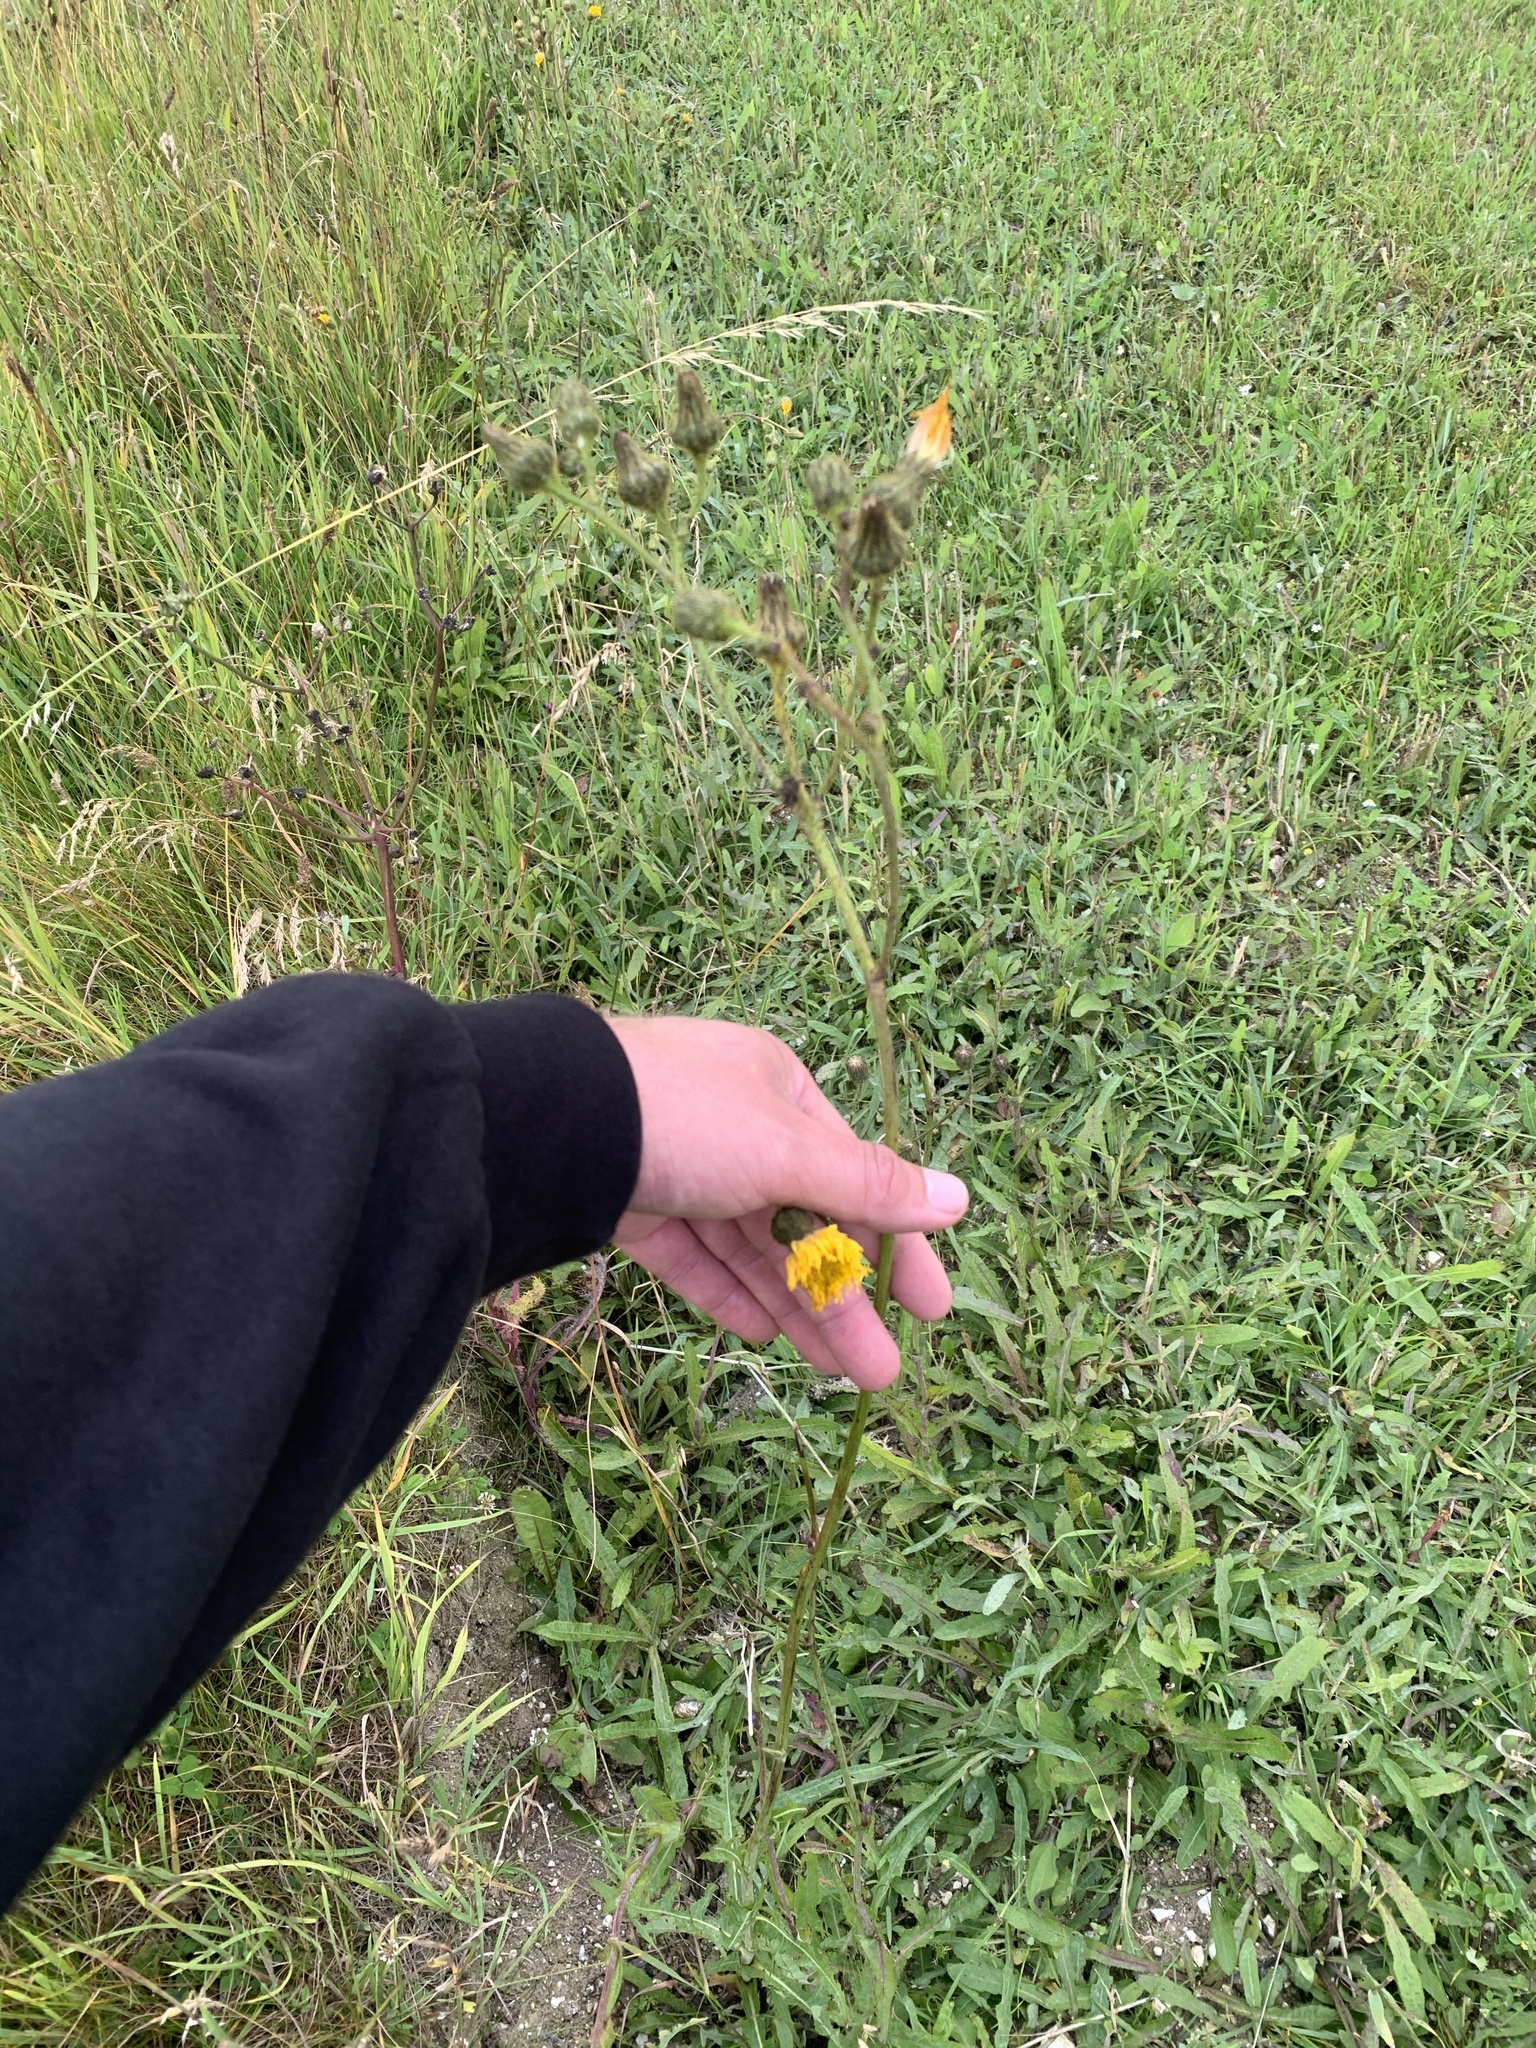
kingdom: Plantae
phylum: Tracheophyta
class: Magnoliopsida
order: Asterales
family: Asteraceae
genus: Sonchus
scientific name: Sonchus arvensis
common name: Perennial sow-thistle
